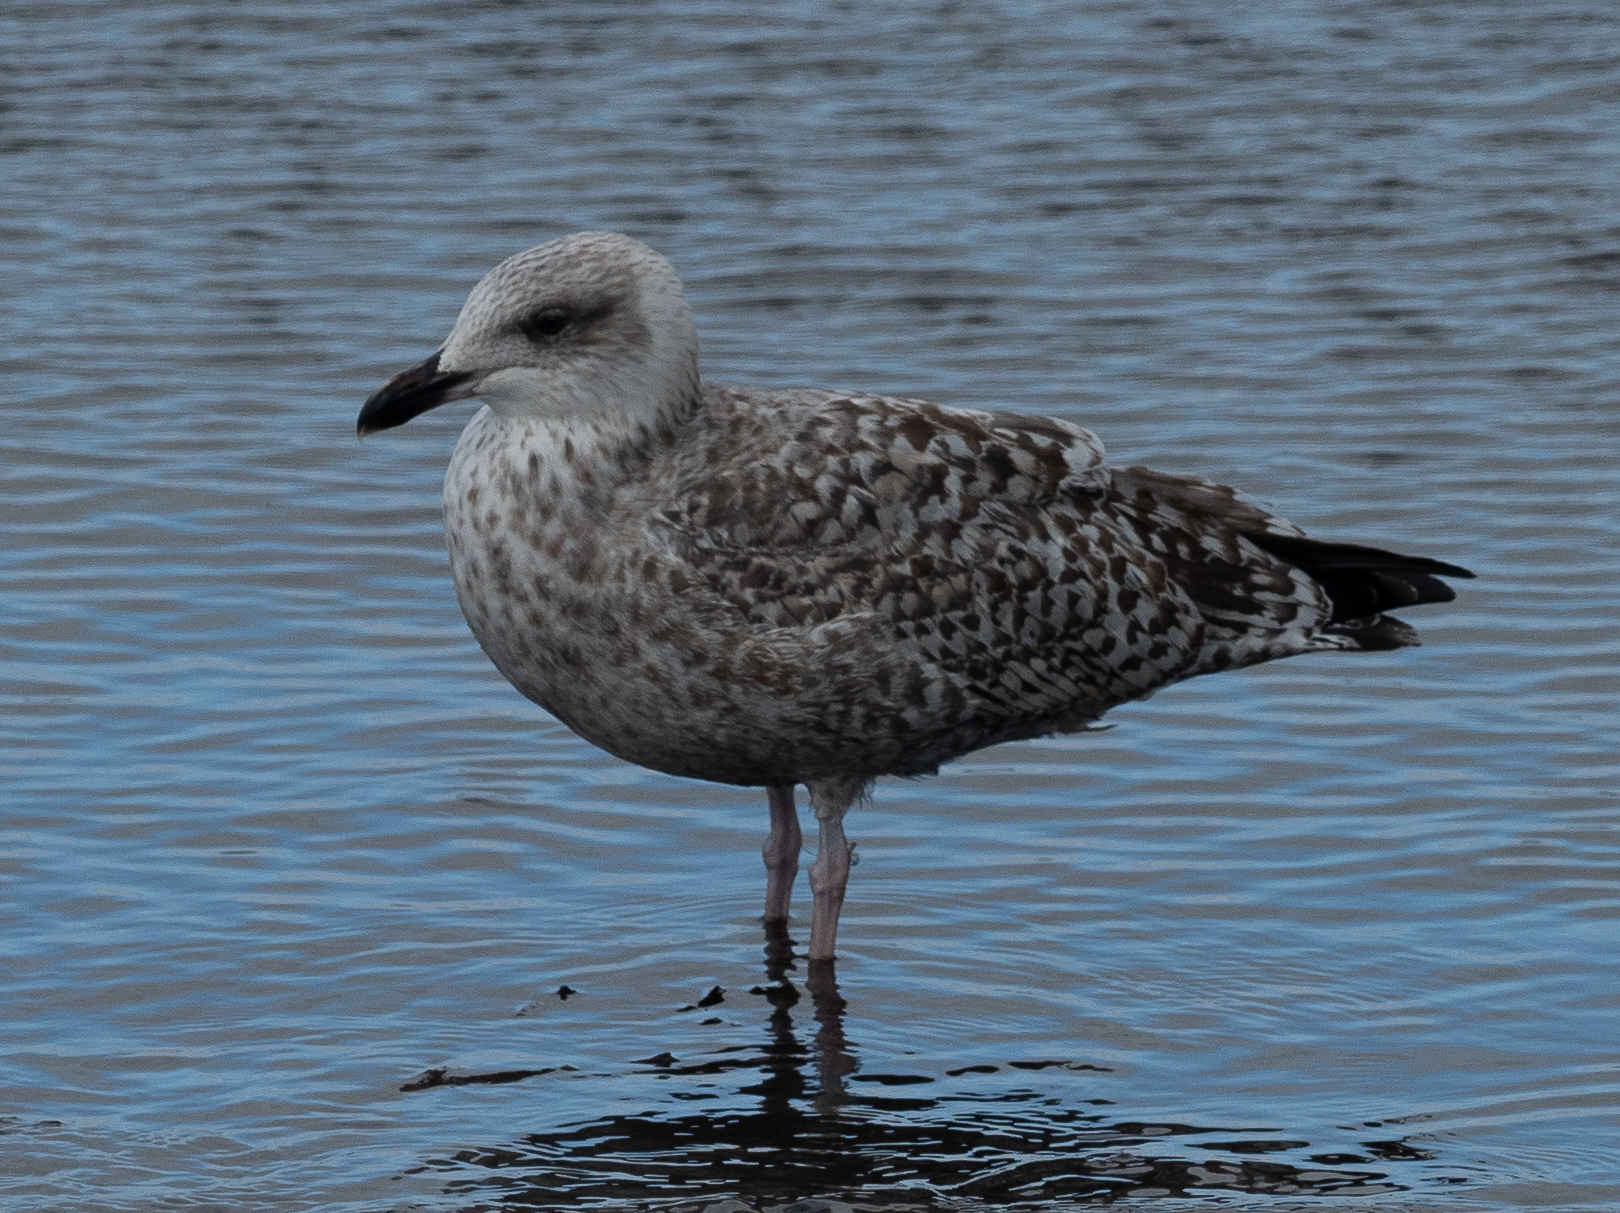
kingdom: Animalia
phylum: Chordata
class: Aves
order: Charadriiformes
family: Laridae
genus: Larus
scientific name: Larus argentatus
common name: Herring gull
